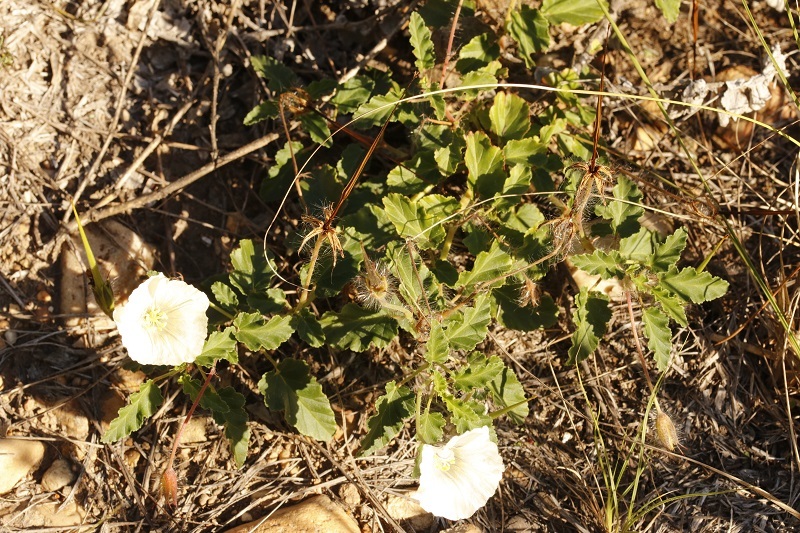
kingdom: Plantae
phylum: Tracheophyta
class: Magnoliopsida
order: Geraniales
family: Geraniaceae
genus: Monsonia
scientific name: Monsonia emarginata
